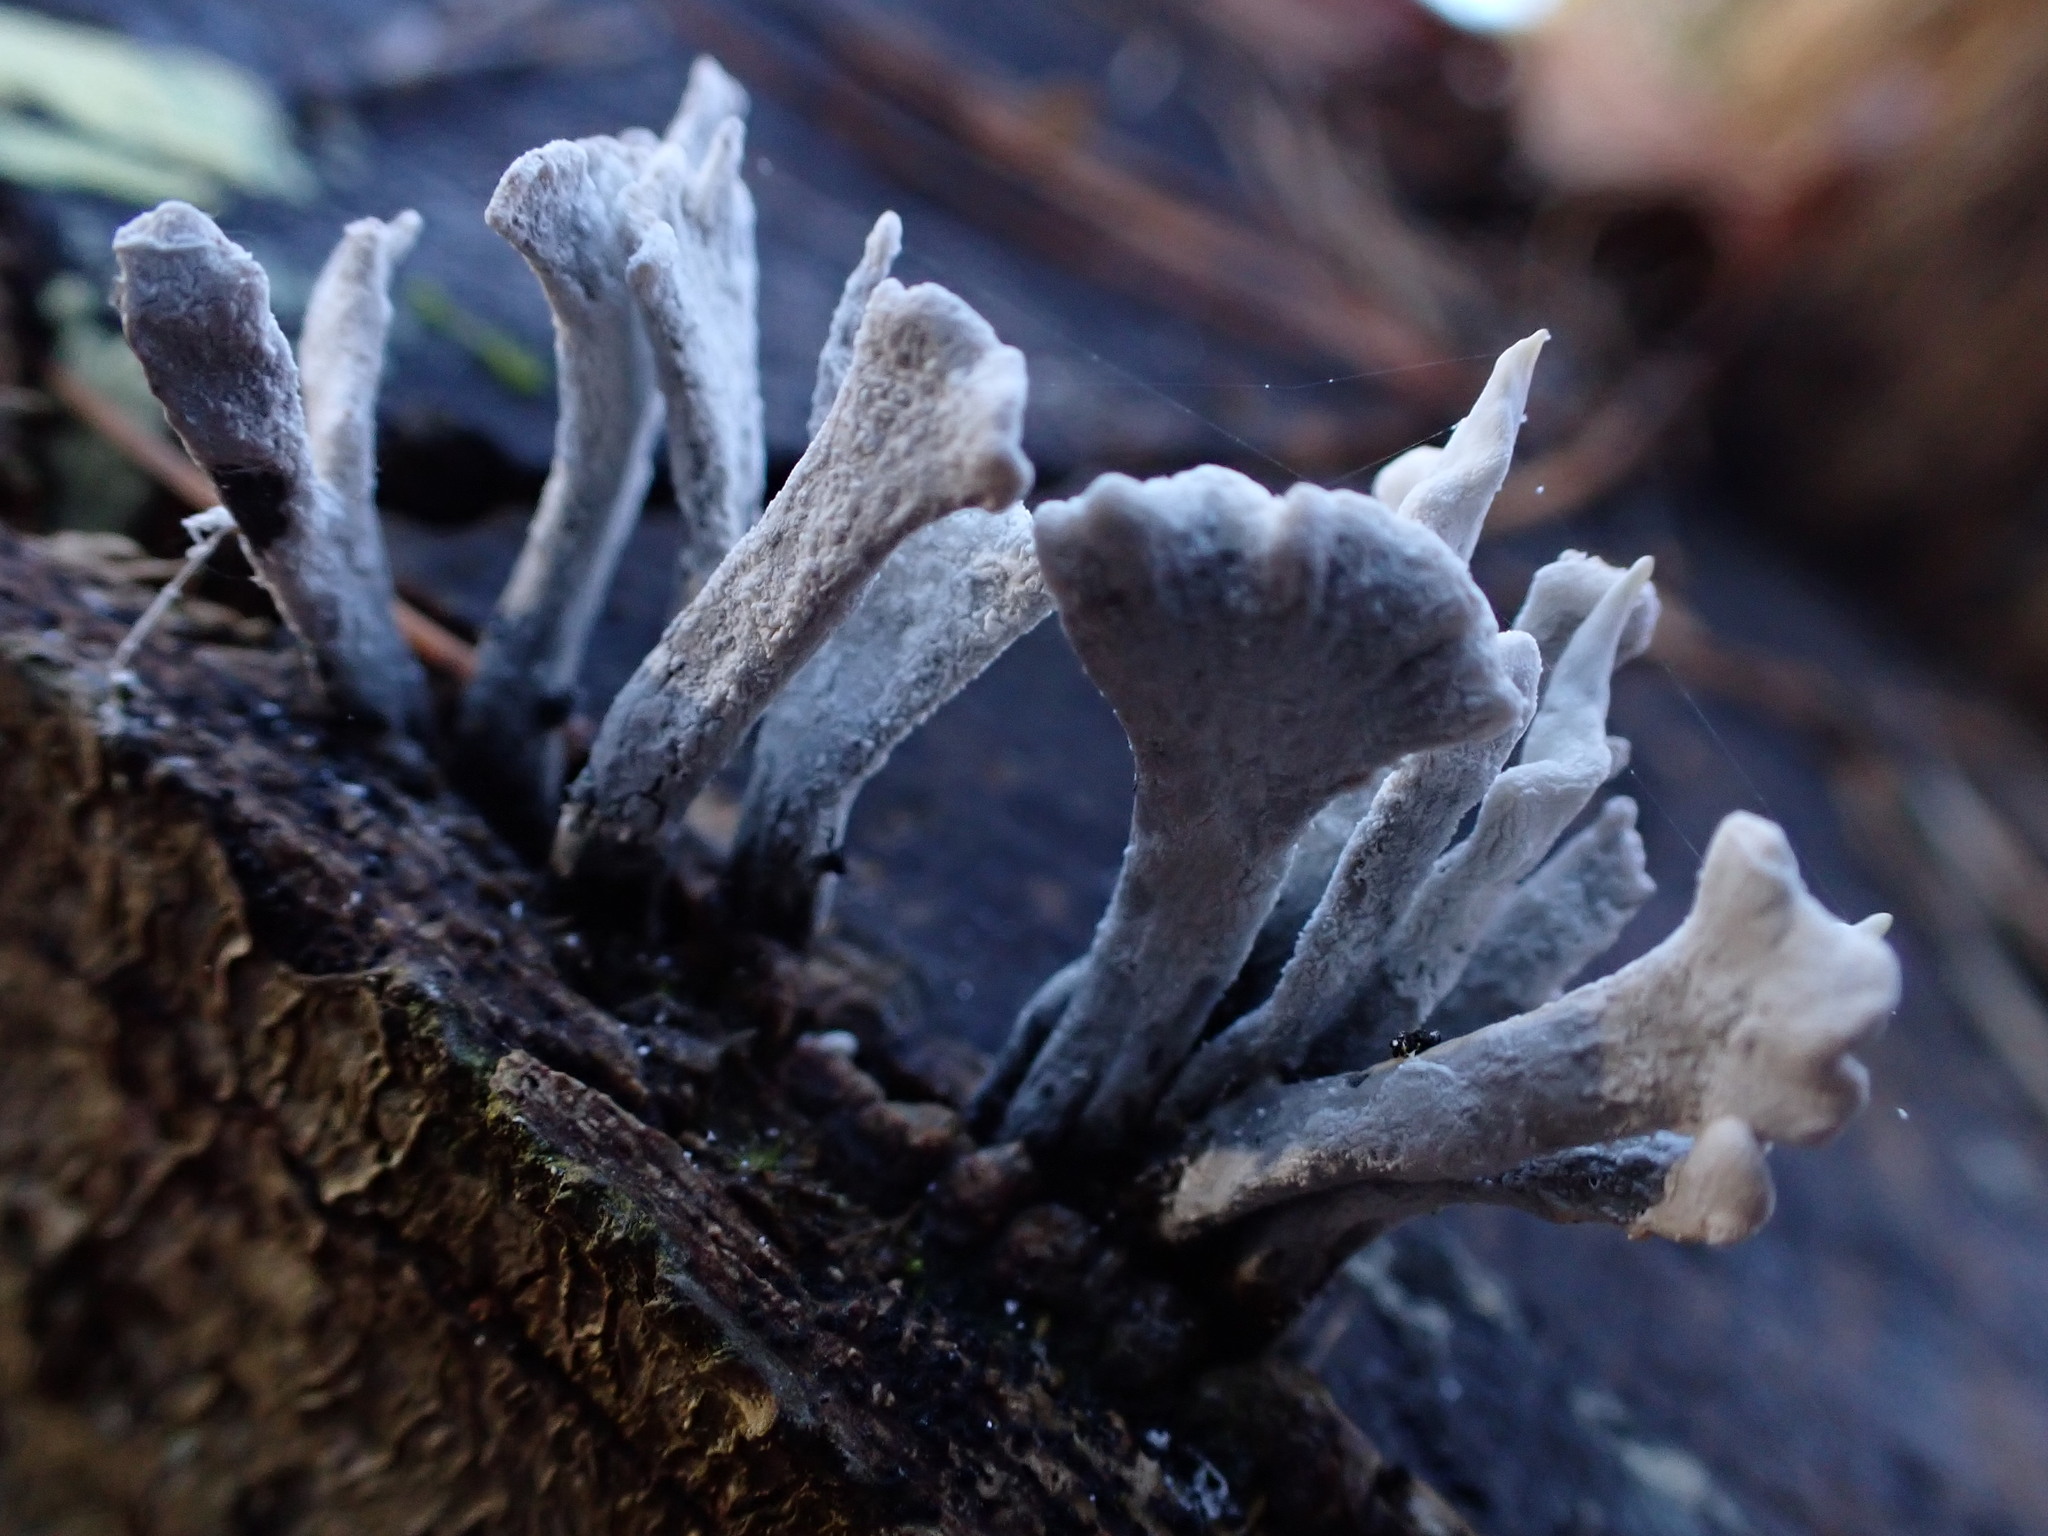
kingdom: Fungi
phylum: Ascomycota
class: Sordariomycetes
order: Xylariales
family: Xylariaceae
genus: Xylaria
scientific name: Xylaria hypoxylon
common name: Candle-snuff fungus
